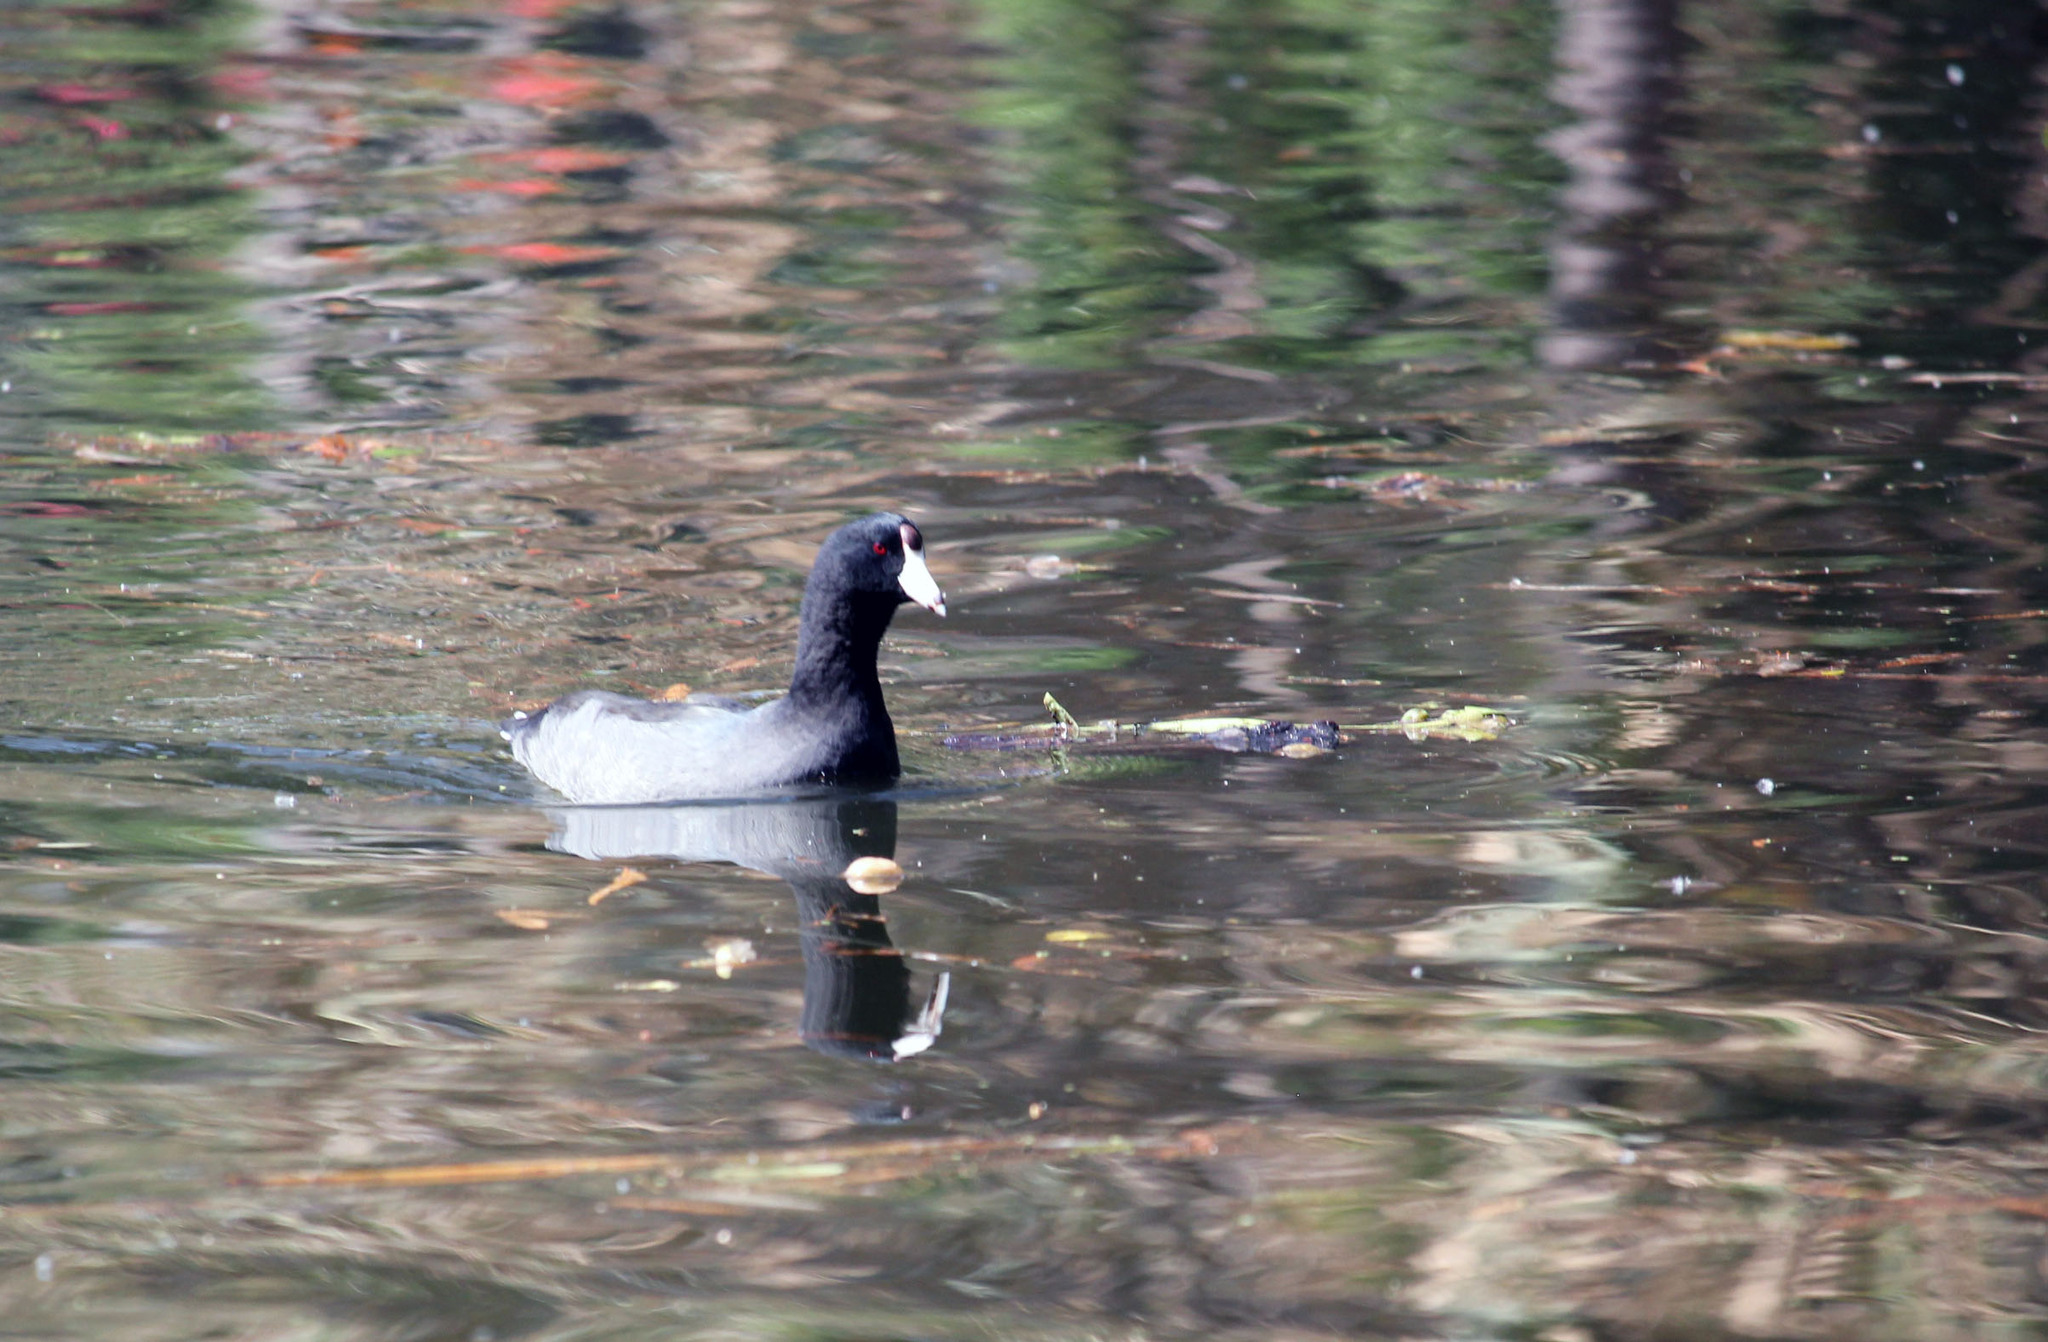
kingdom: Animalia
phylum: Chordata
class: Aves
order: Gruiformes
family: Rallidae
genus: Fulica
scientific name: Fulica americana
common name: American coot
